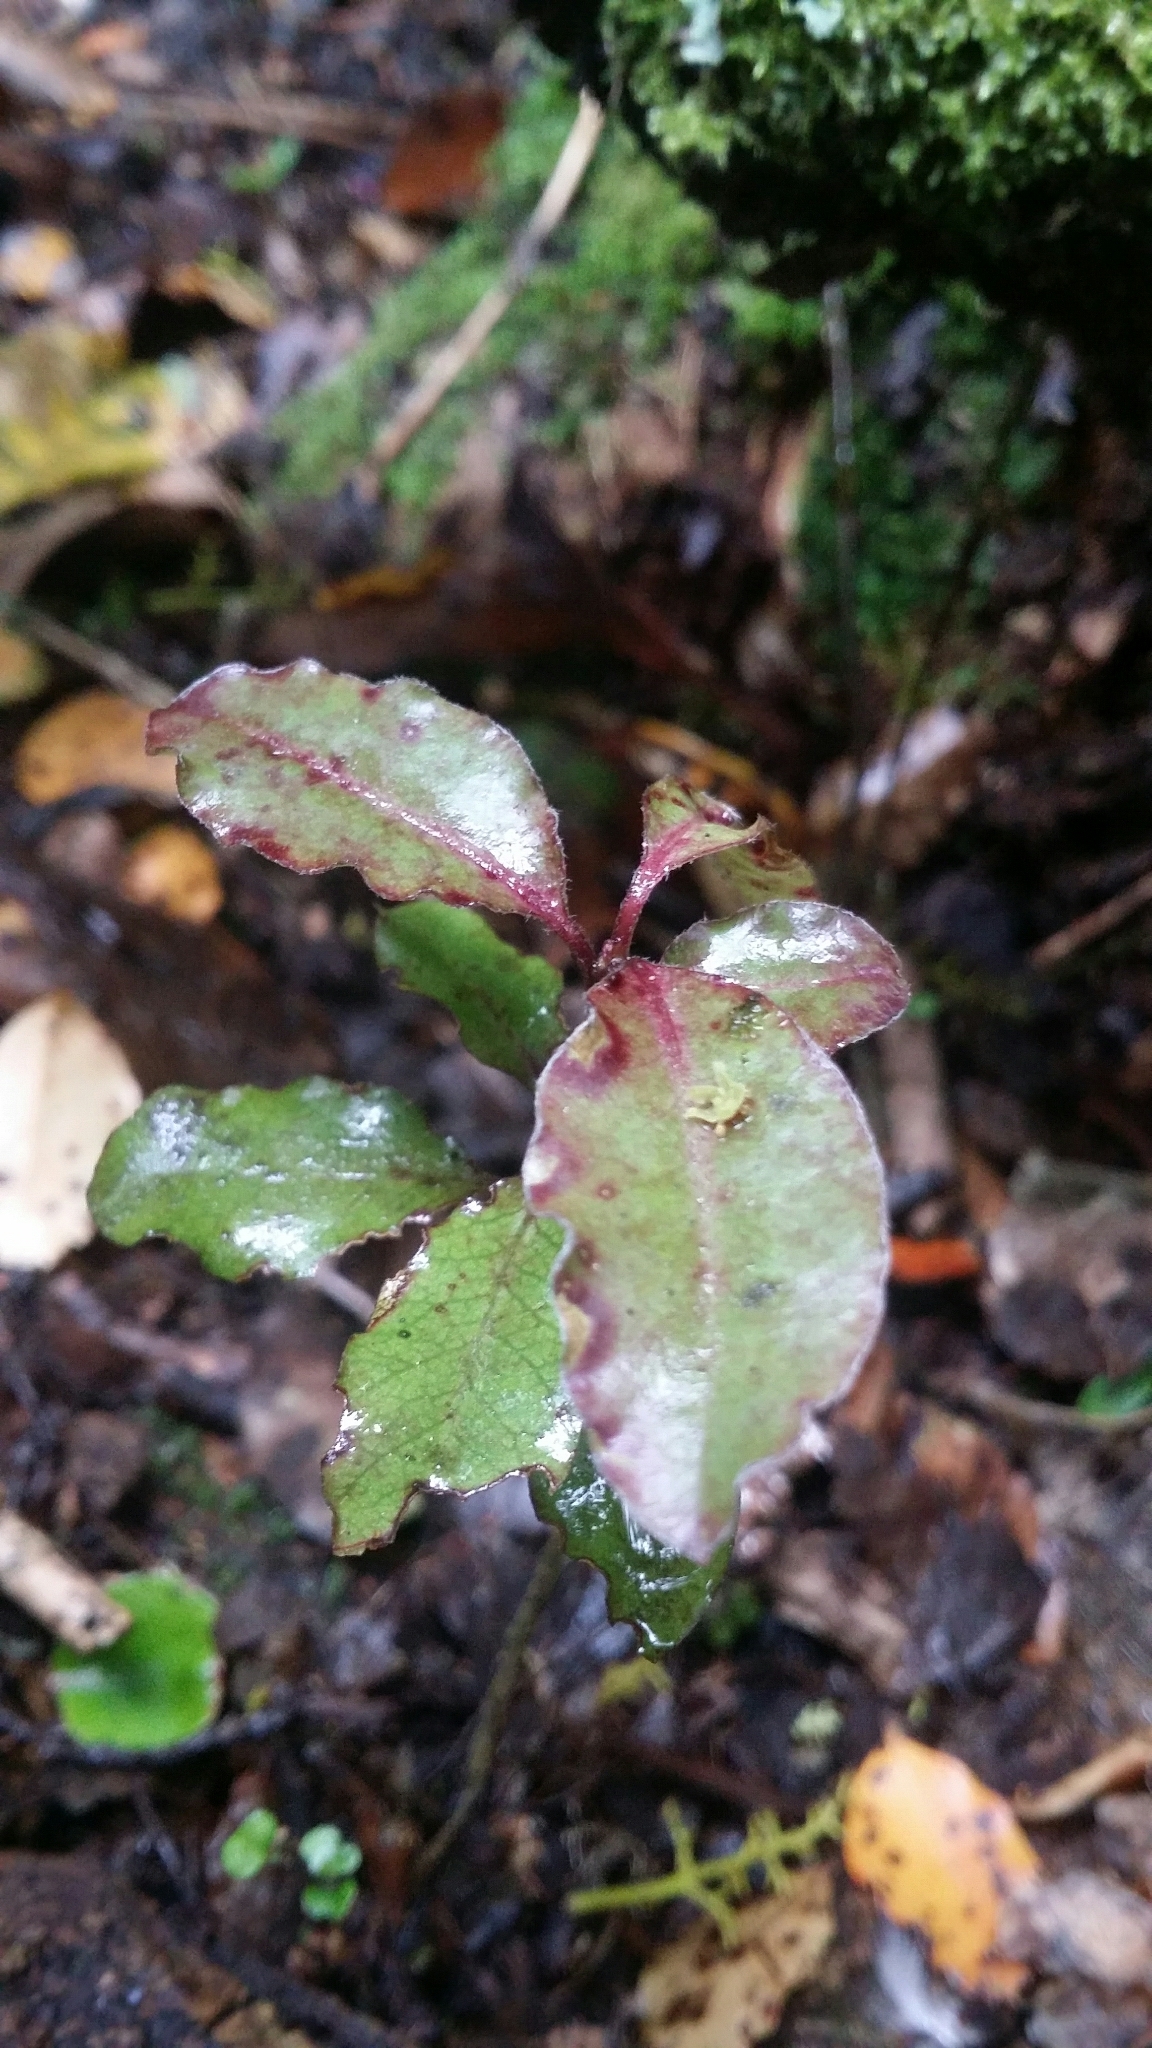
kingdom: Plantae
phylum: Tracheophyta
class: Magnoliopsida
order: Canellales
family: Winteraceae
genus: Pseudowintera
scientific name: Pseudowintera colorata
